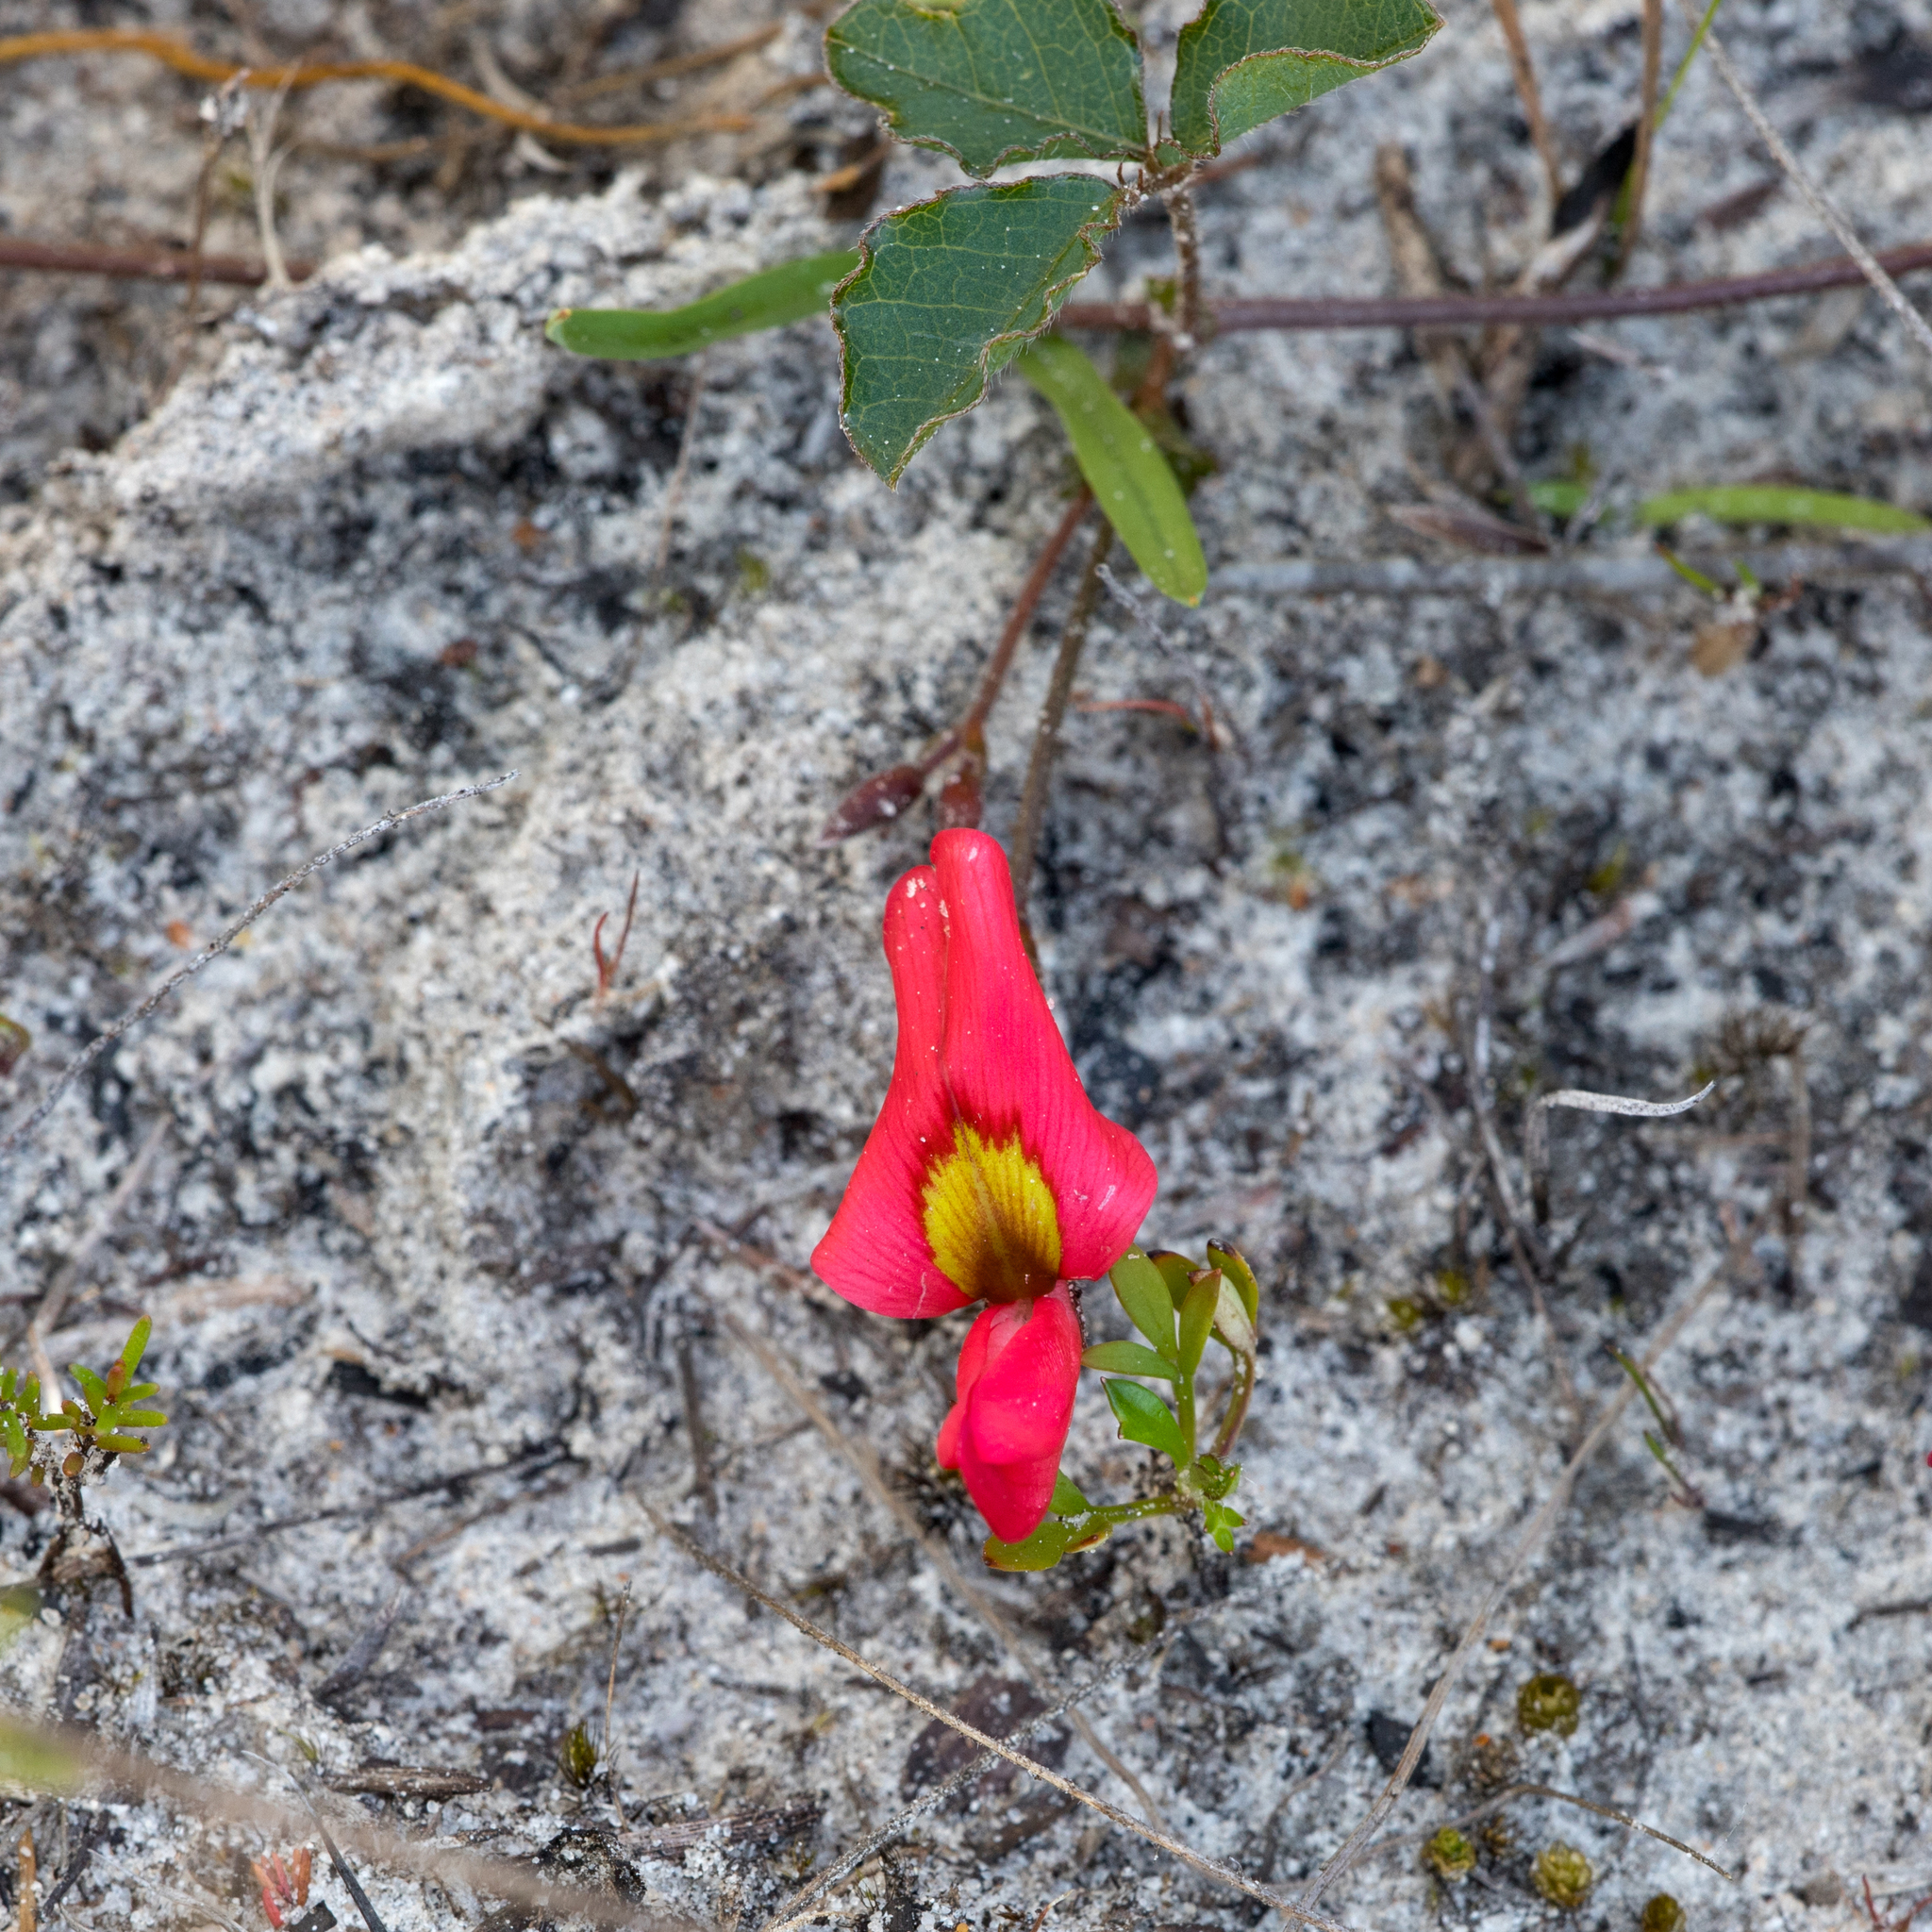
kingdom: Plantae
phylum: Tracheophyta
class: Magnoliopsida
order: Fabales
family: Fabaceae
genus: Kennedia
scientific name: Kennedia prostrata
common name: Running-postman
